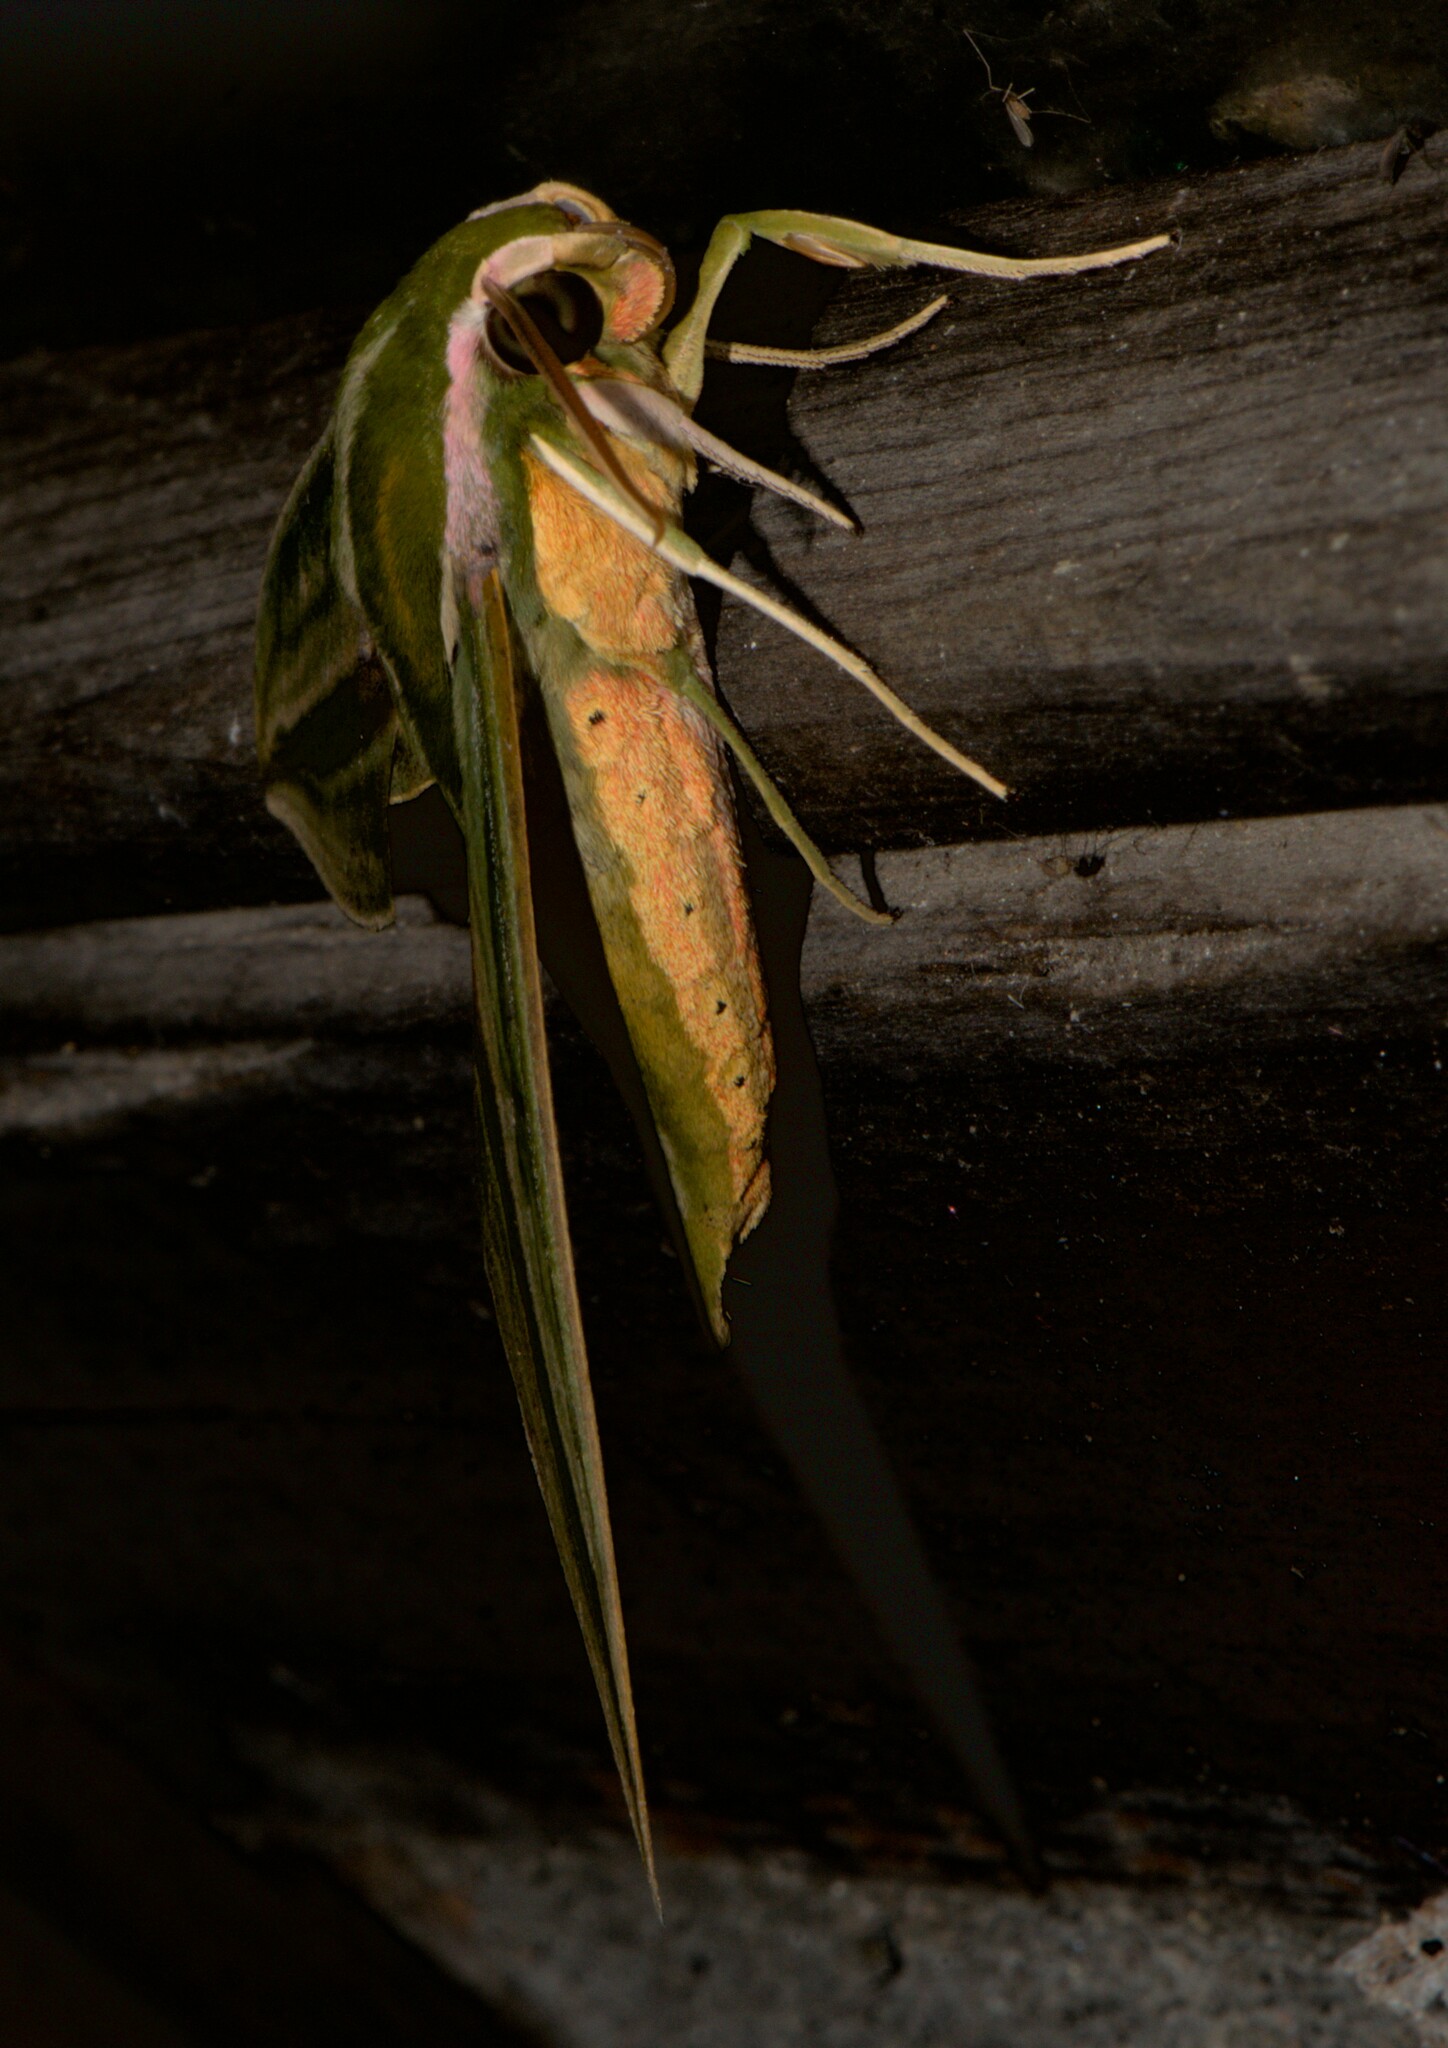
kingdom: Animalia
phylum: Arthropoda
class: Insecta
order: Lepidoptera
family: Sphingidae
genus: Cechetra
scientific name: Cechetra lineosa
